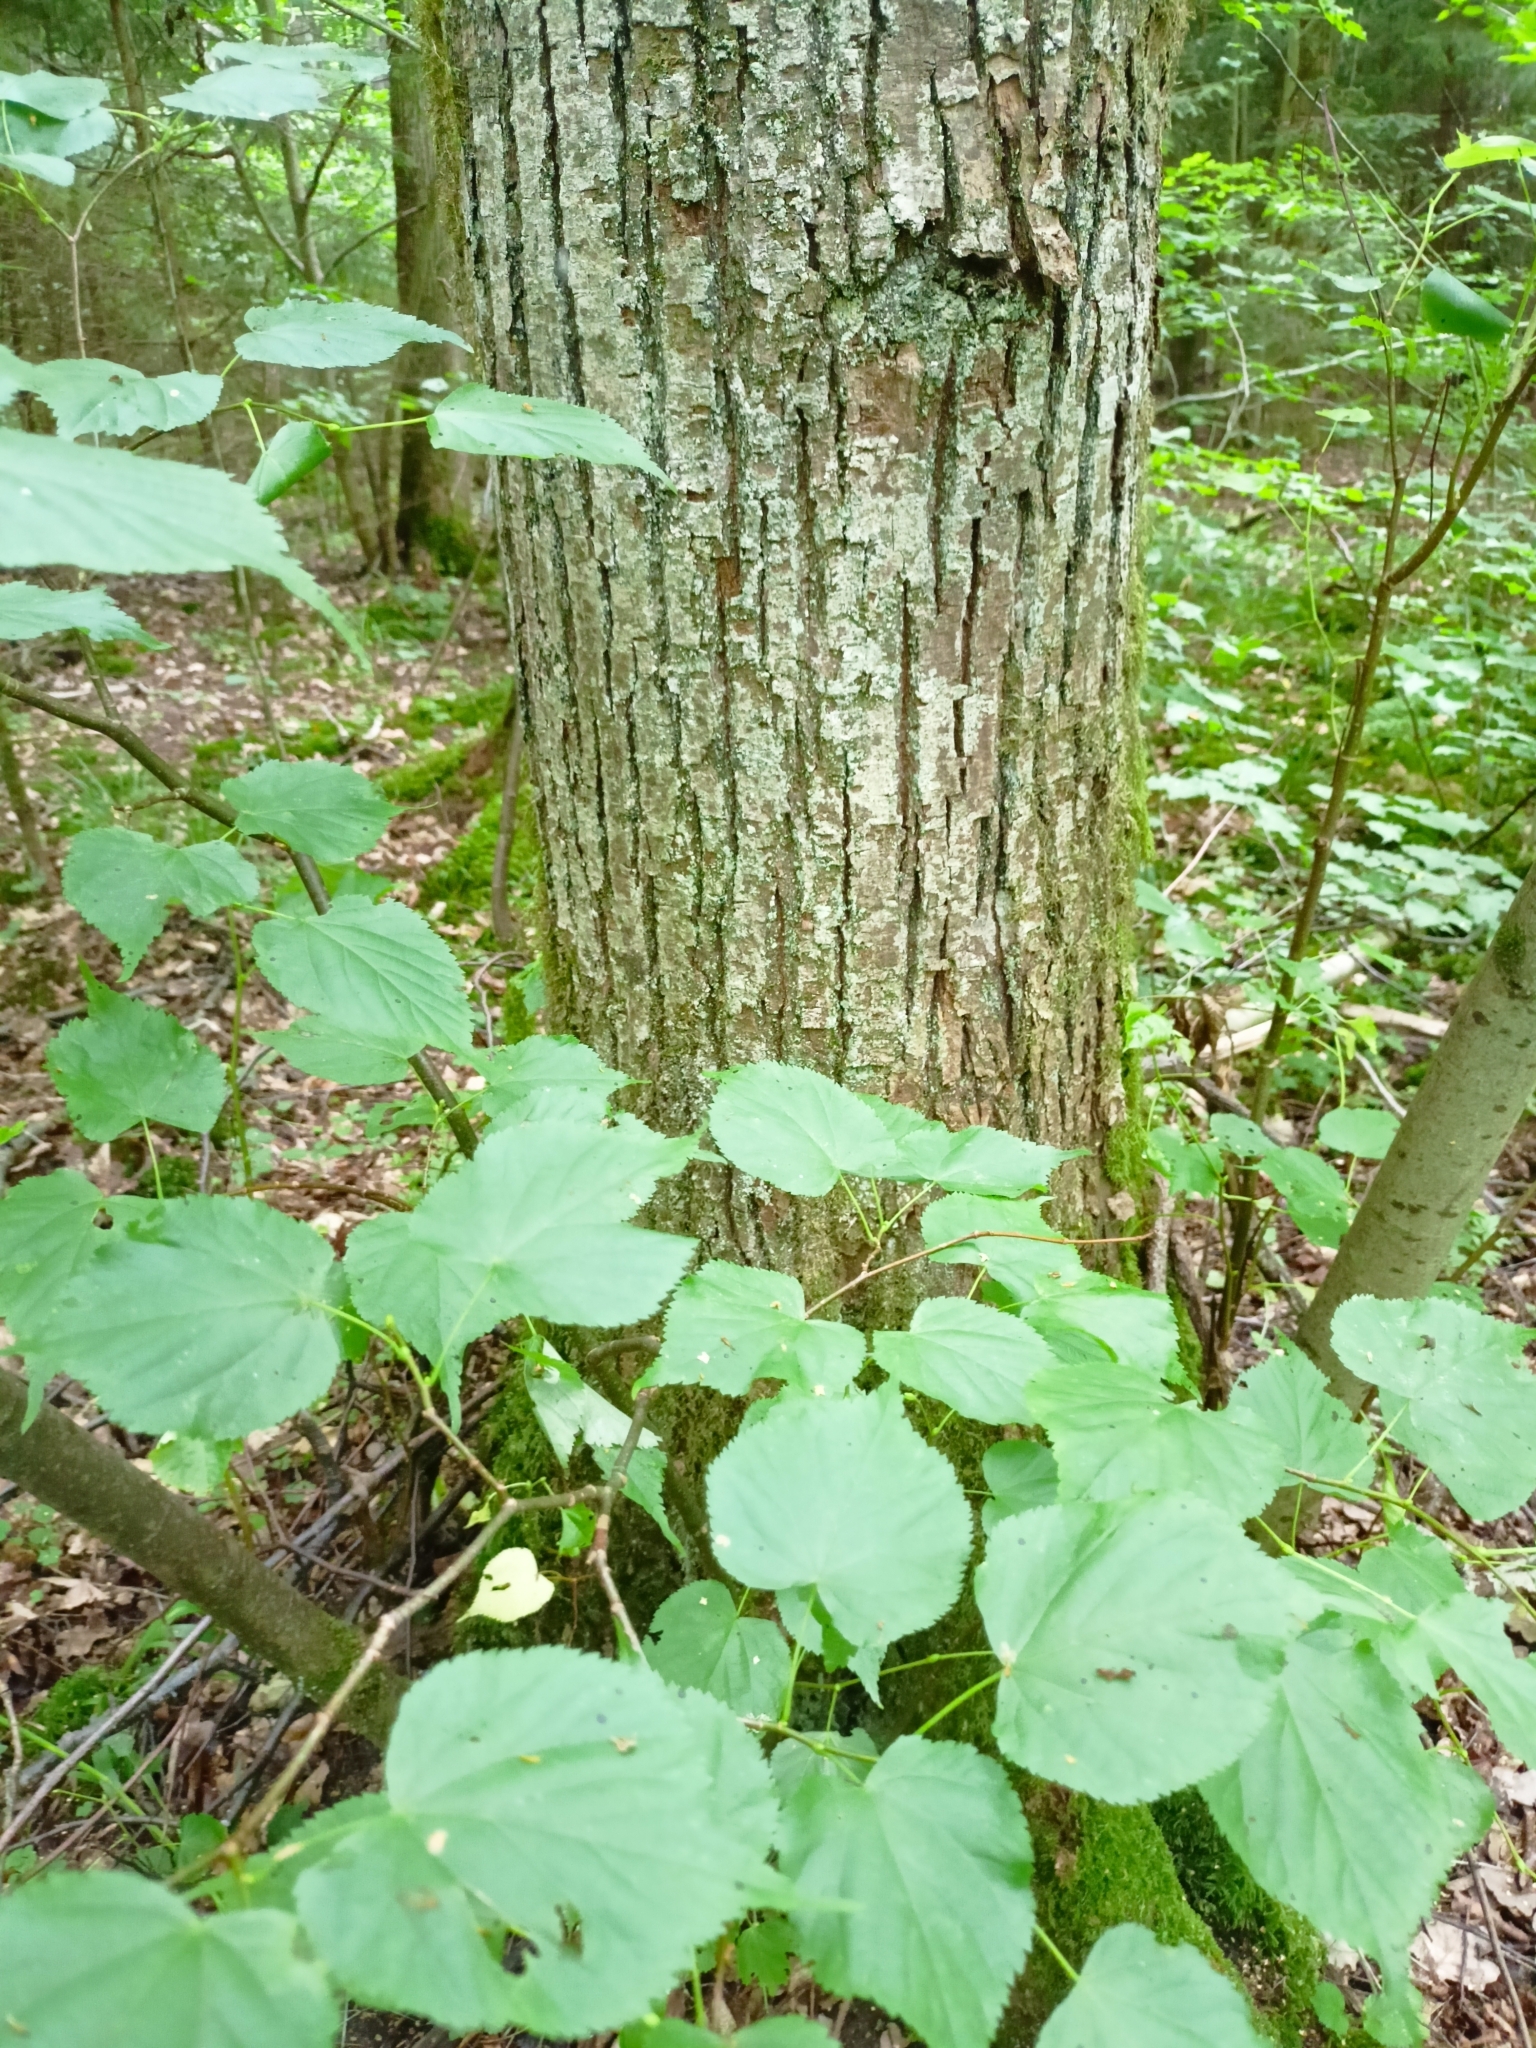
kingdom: Plantae
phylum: Tracheophyta
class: Magnoliopsida
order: Malvales
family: Malvaceae
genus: Tilia
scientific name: Tilia cordata
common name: Small-leaved lime
